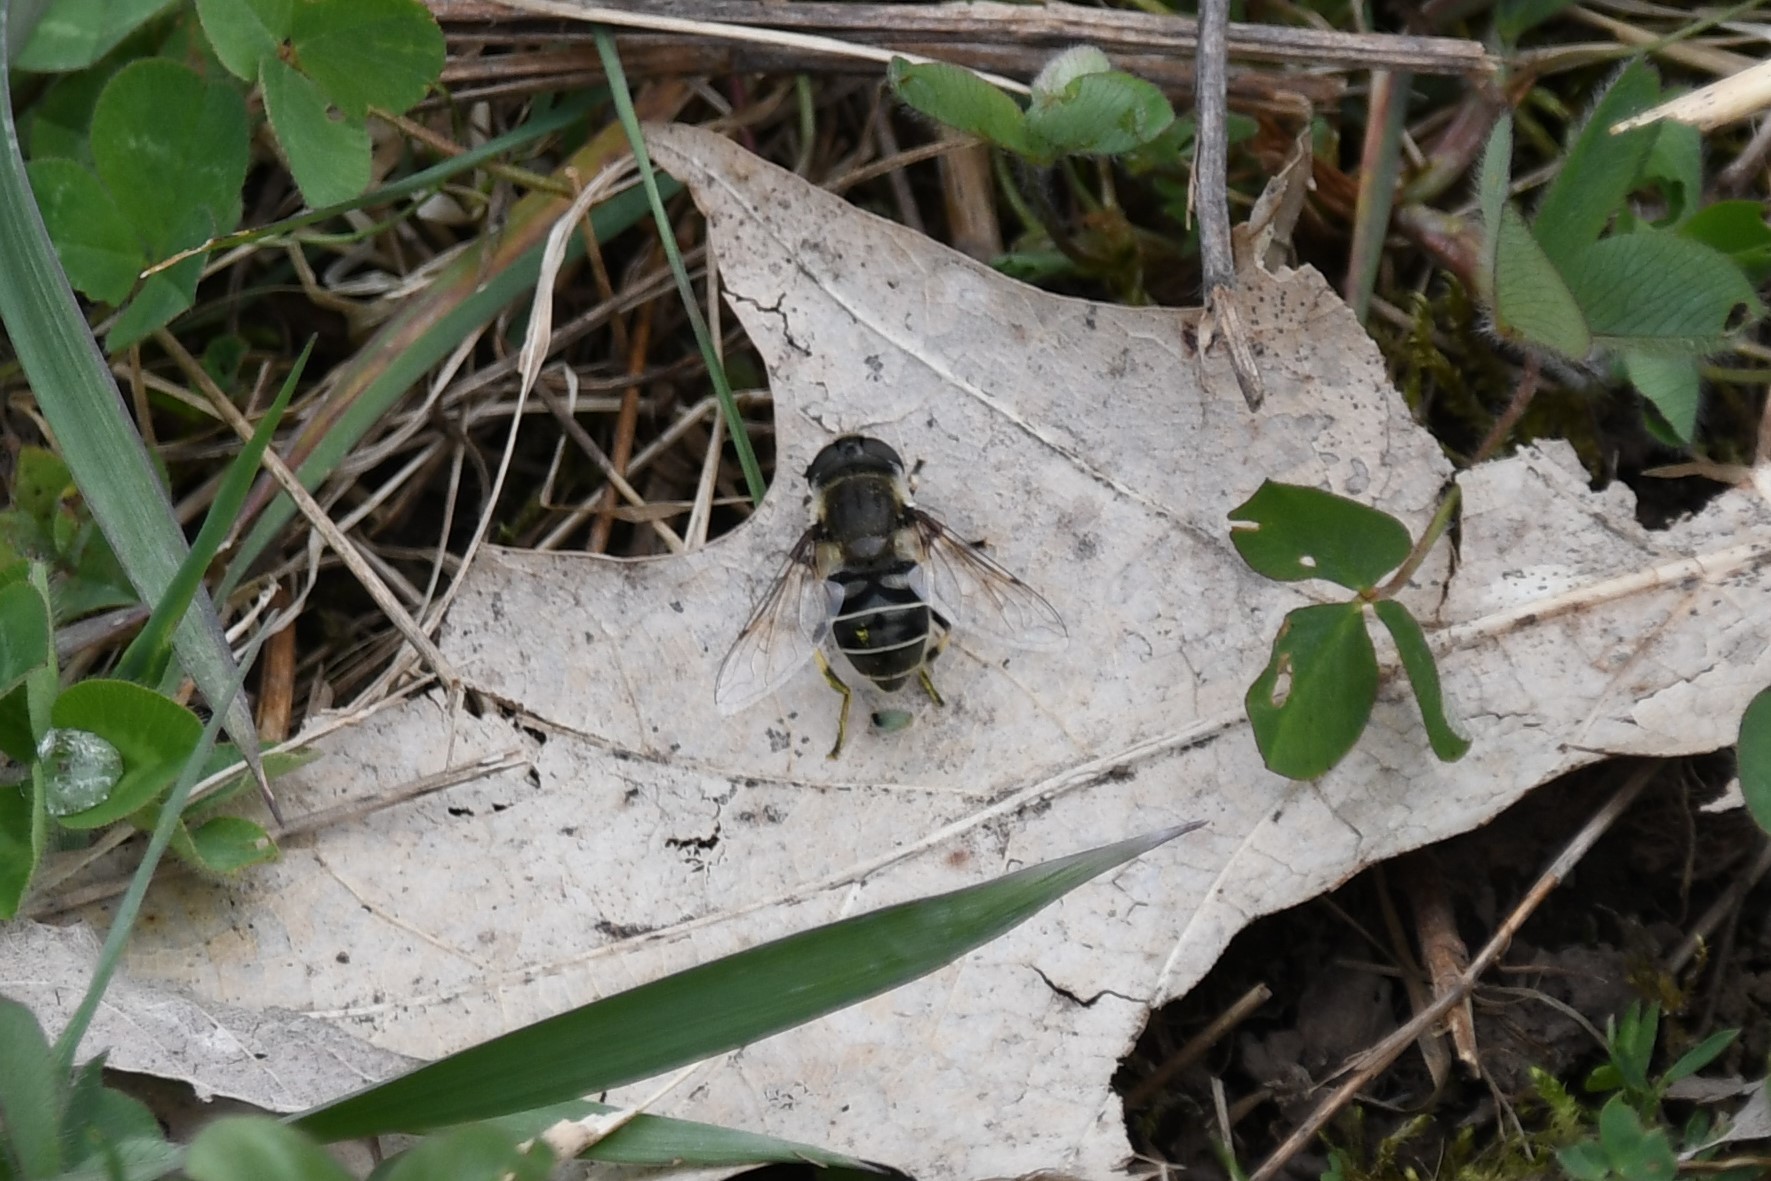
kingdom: Animalia
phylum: Arthropoda
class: Insecta
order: Diptera
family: Syrphidae
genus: Eristalis
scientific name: Eristalis dimidiata
